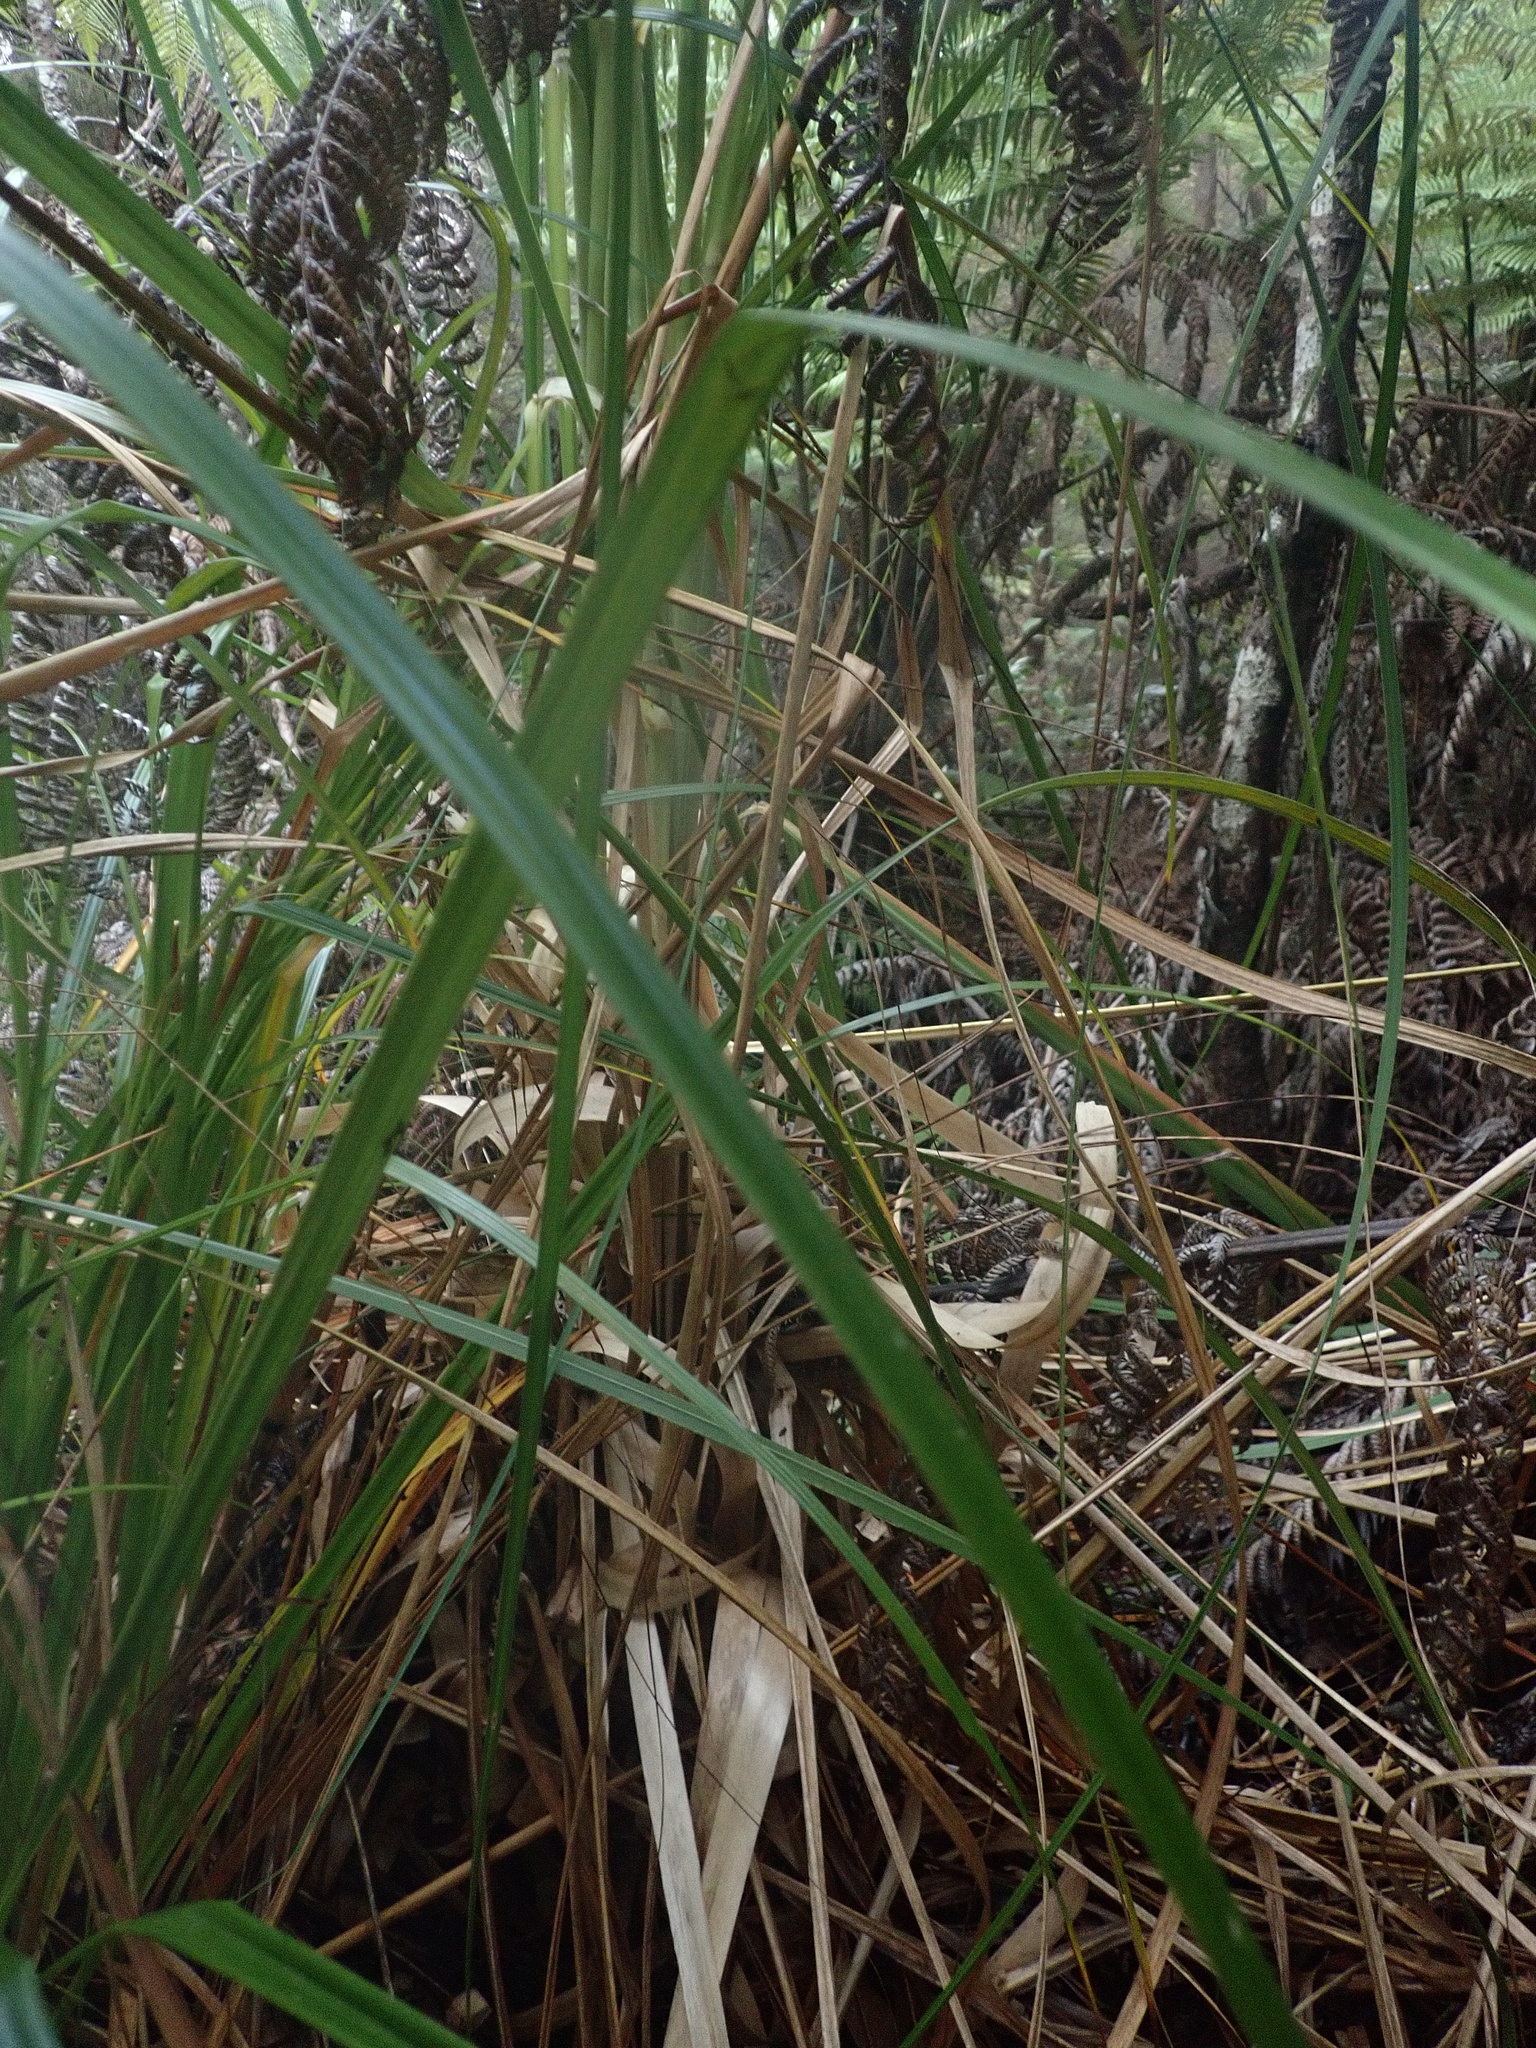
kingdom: Plantae
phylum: Tracheophyta
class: Liliopsida
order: Poales
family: Poaceae
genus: Cortaderia
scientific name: Cortaderia selloana
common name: Uruguayan pampas grass
